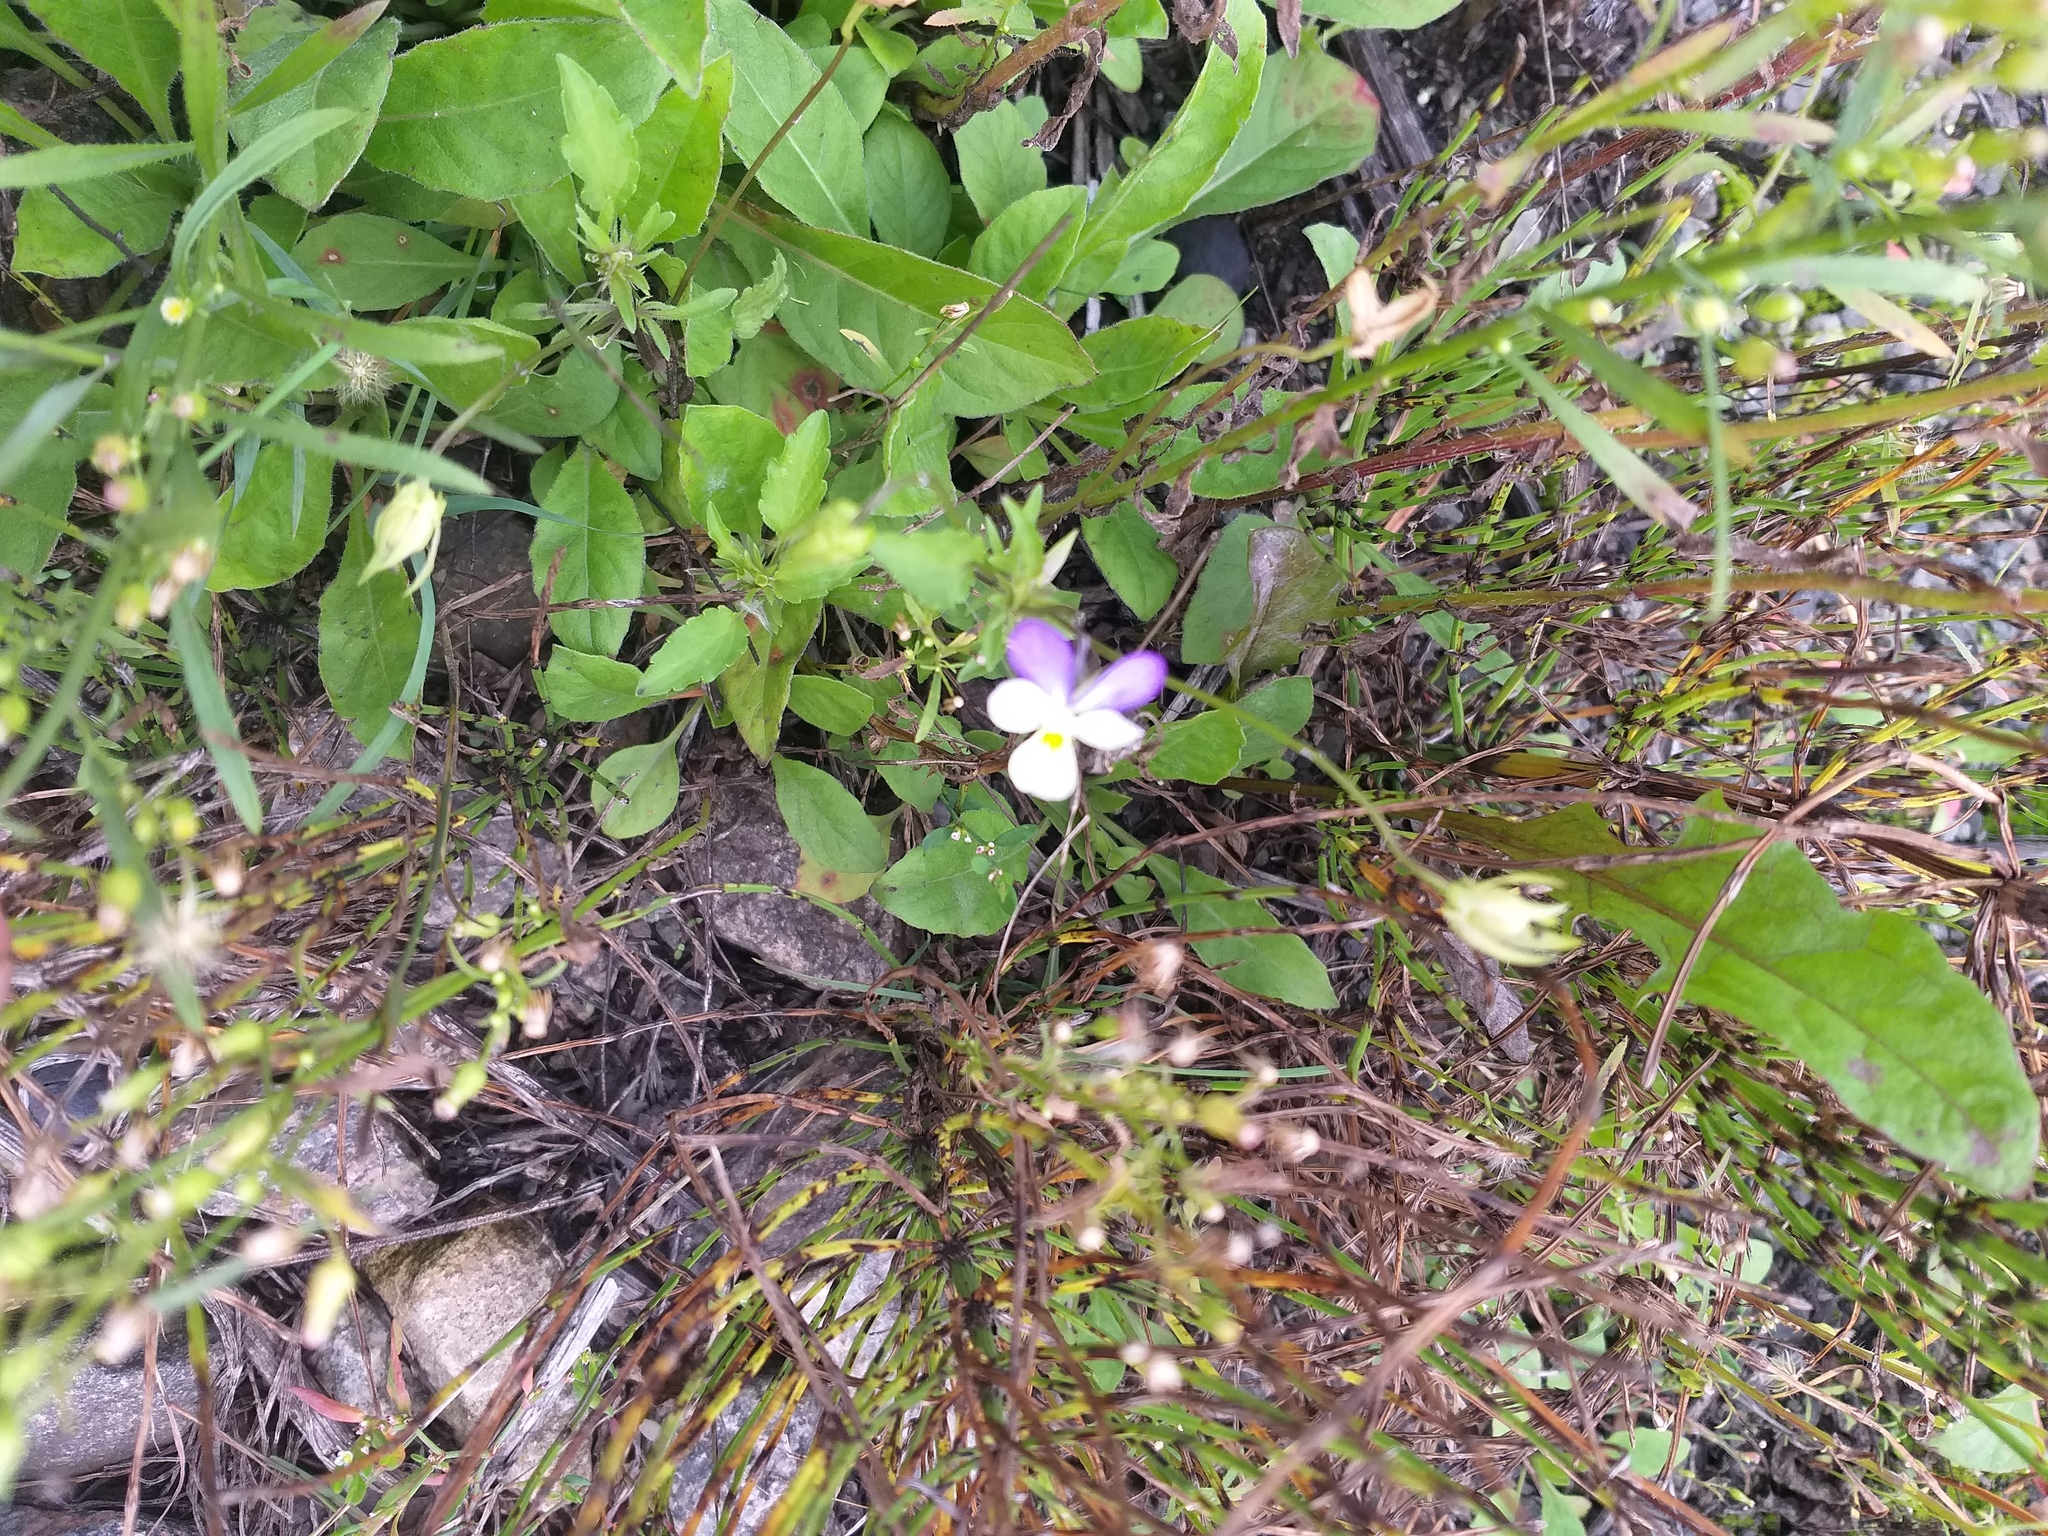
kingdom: Plantae
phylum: Tracheophyta
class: Magnoliopsida
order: Malpighiales
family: Violaceae
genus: Viola
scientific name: Viola tricolor
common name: Pansy
